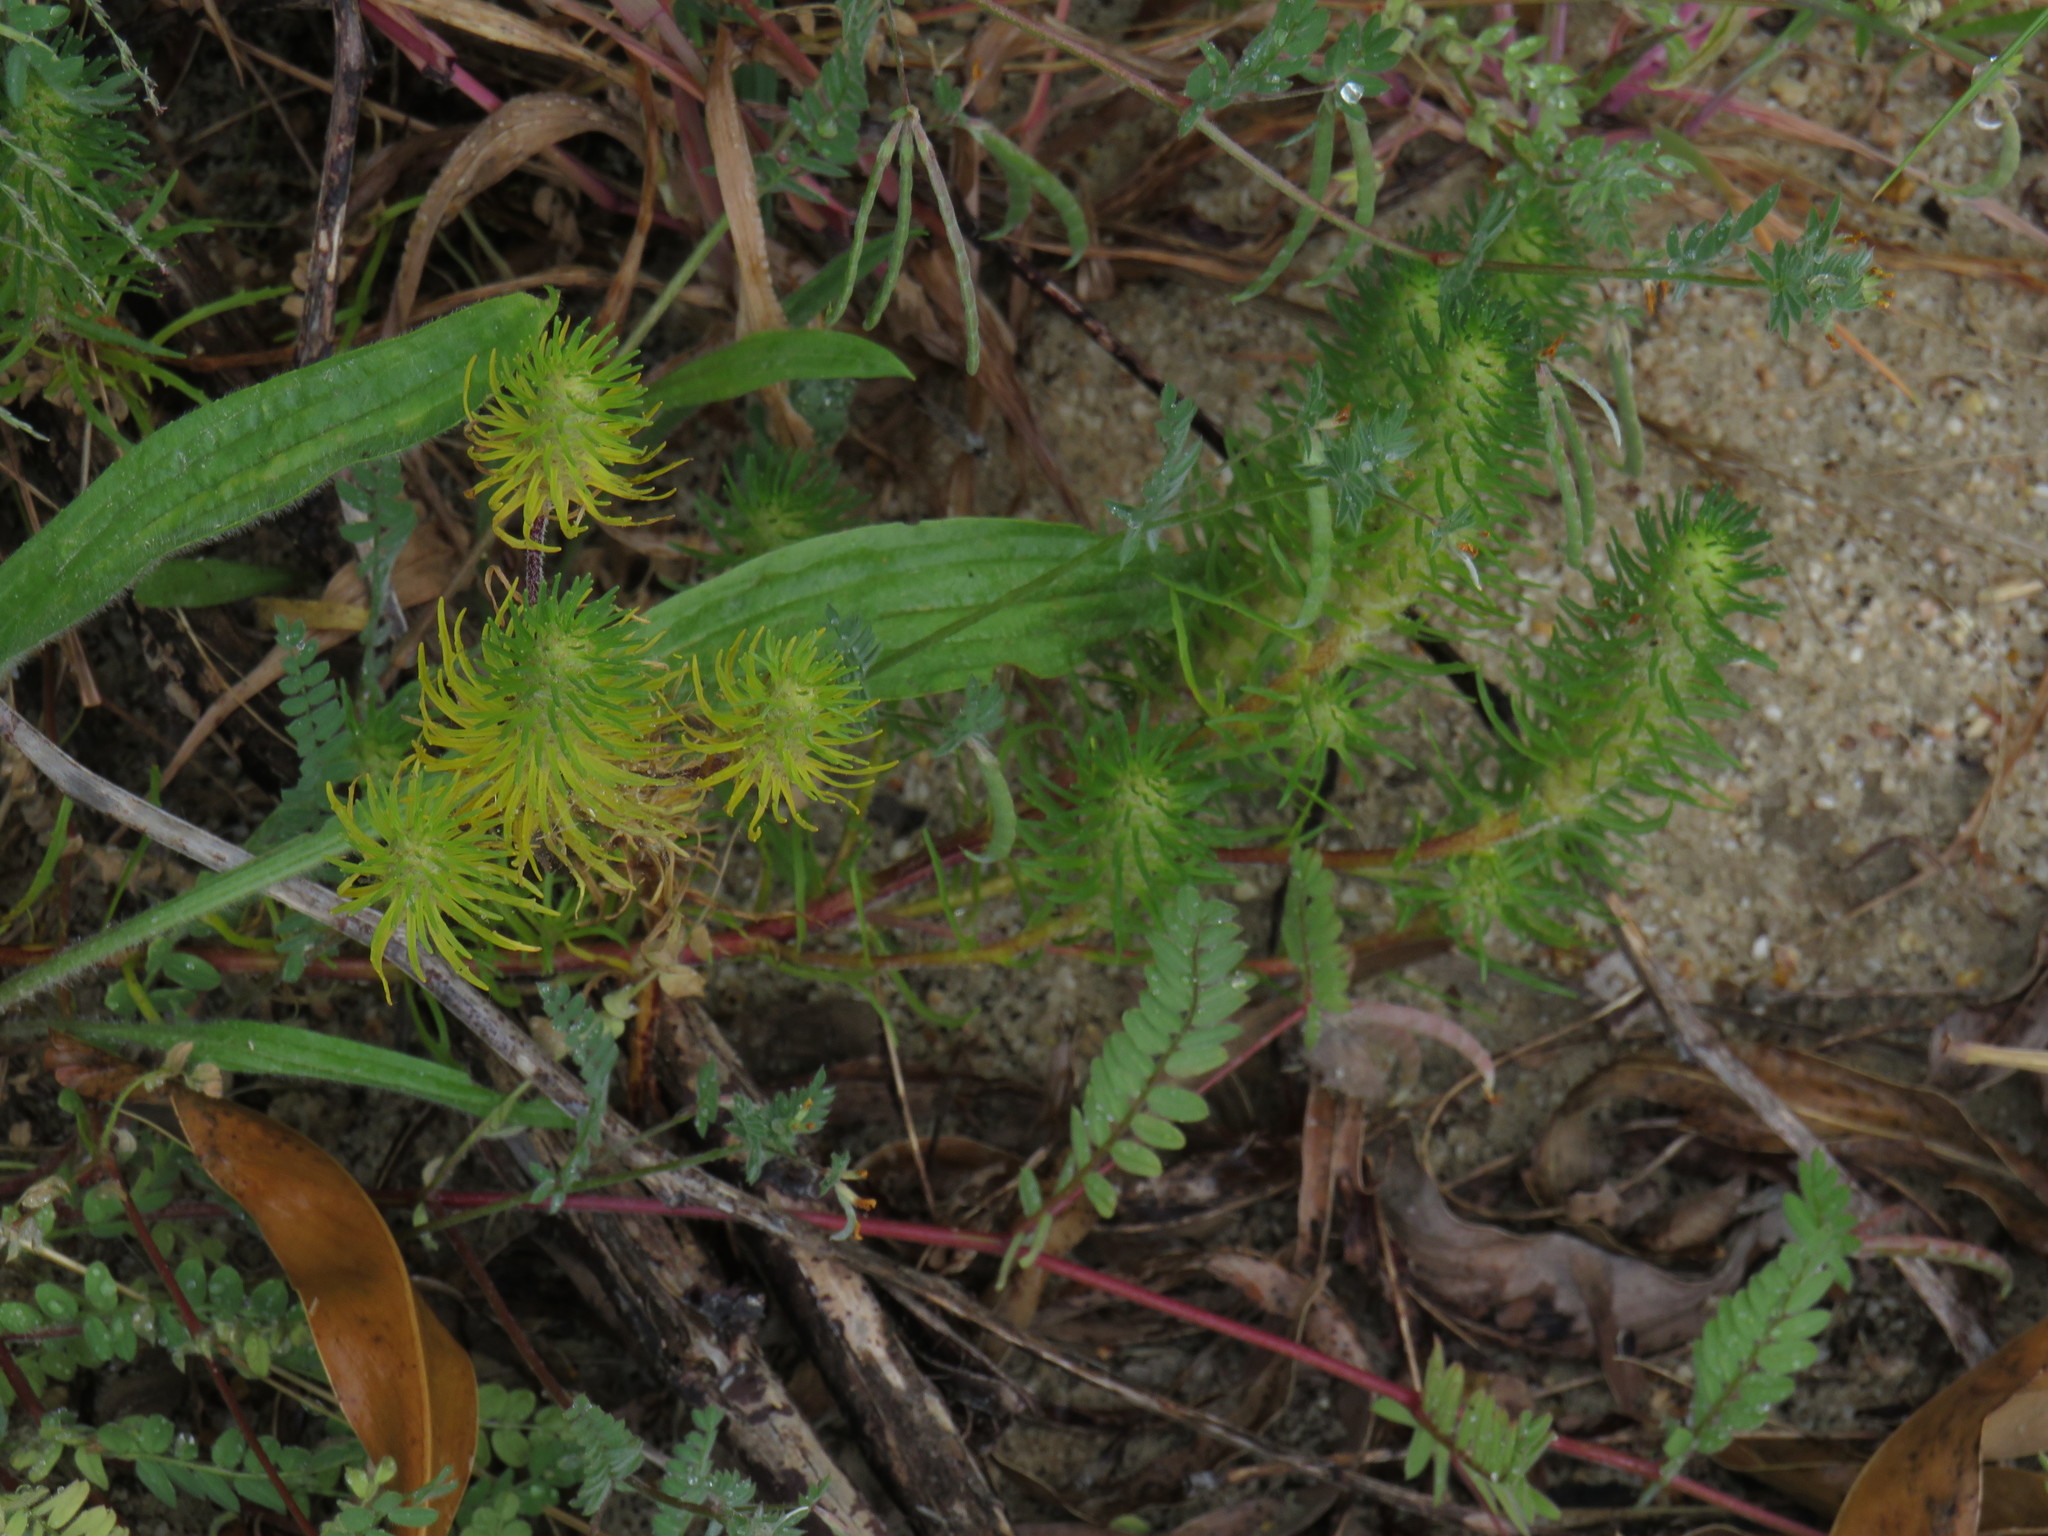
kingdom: Plantae
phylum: Tracheophyta
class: Magnoliopsida
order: Lamiales
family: Scrophulariaceae
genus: Dischisma
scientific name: Dischisma capitatum
